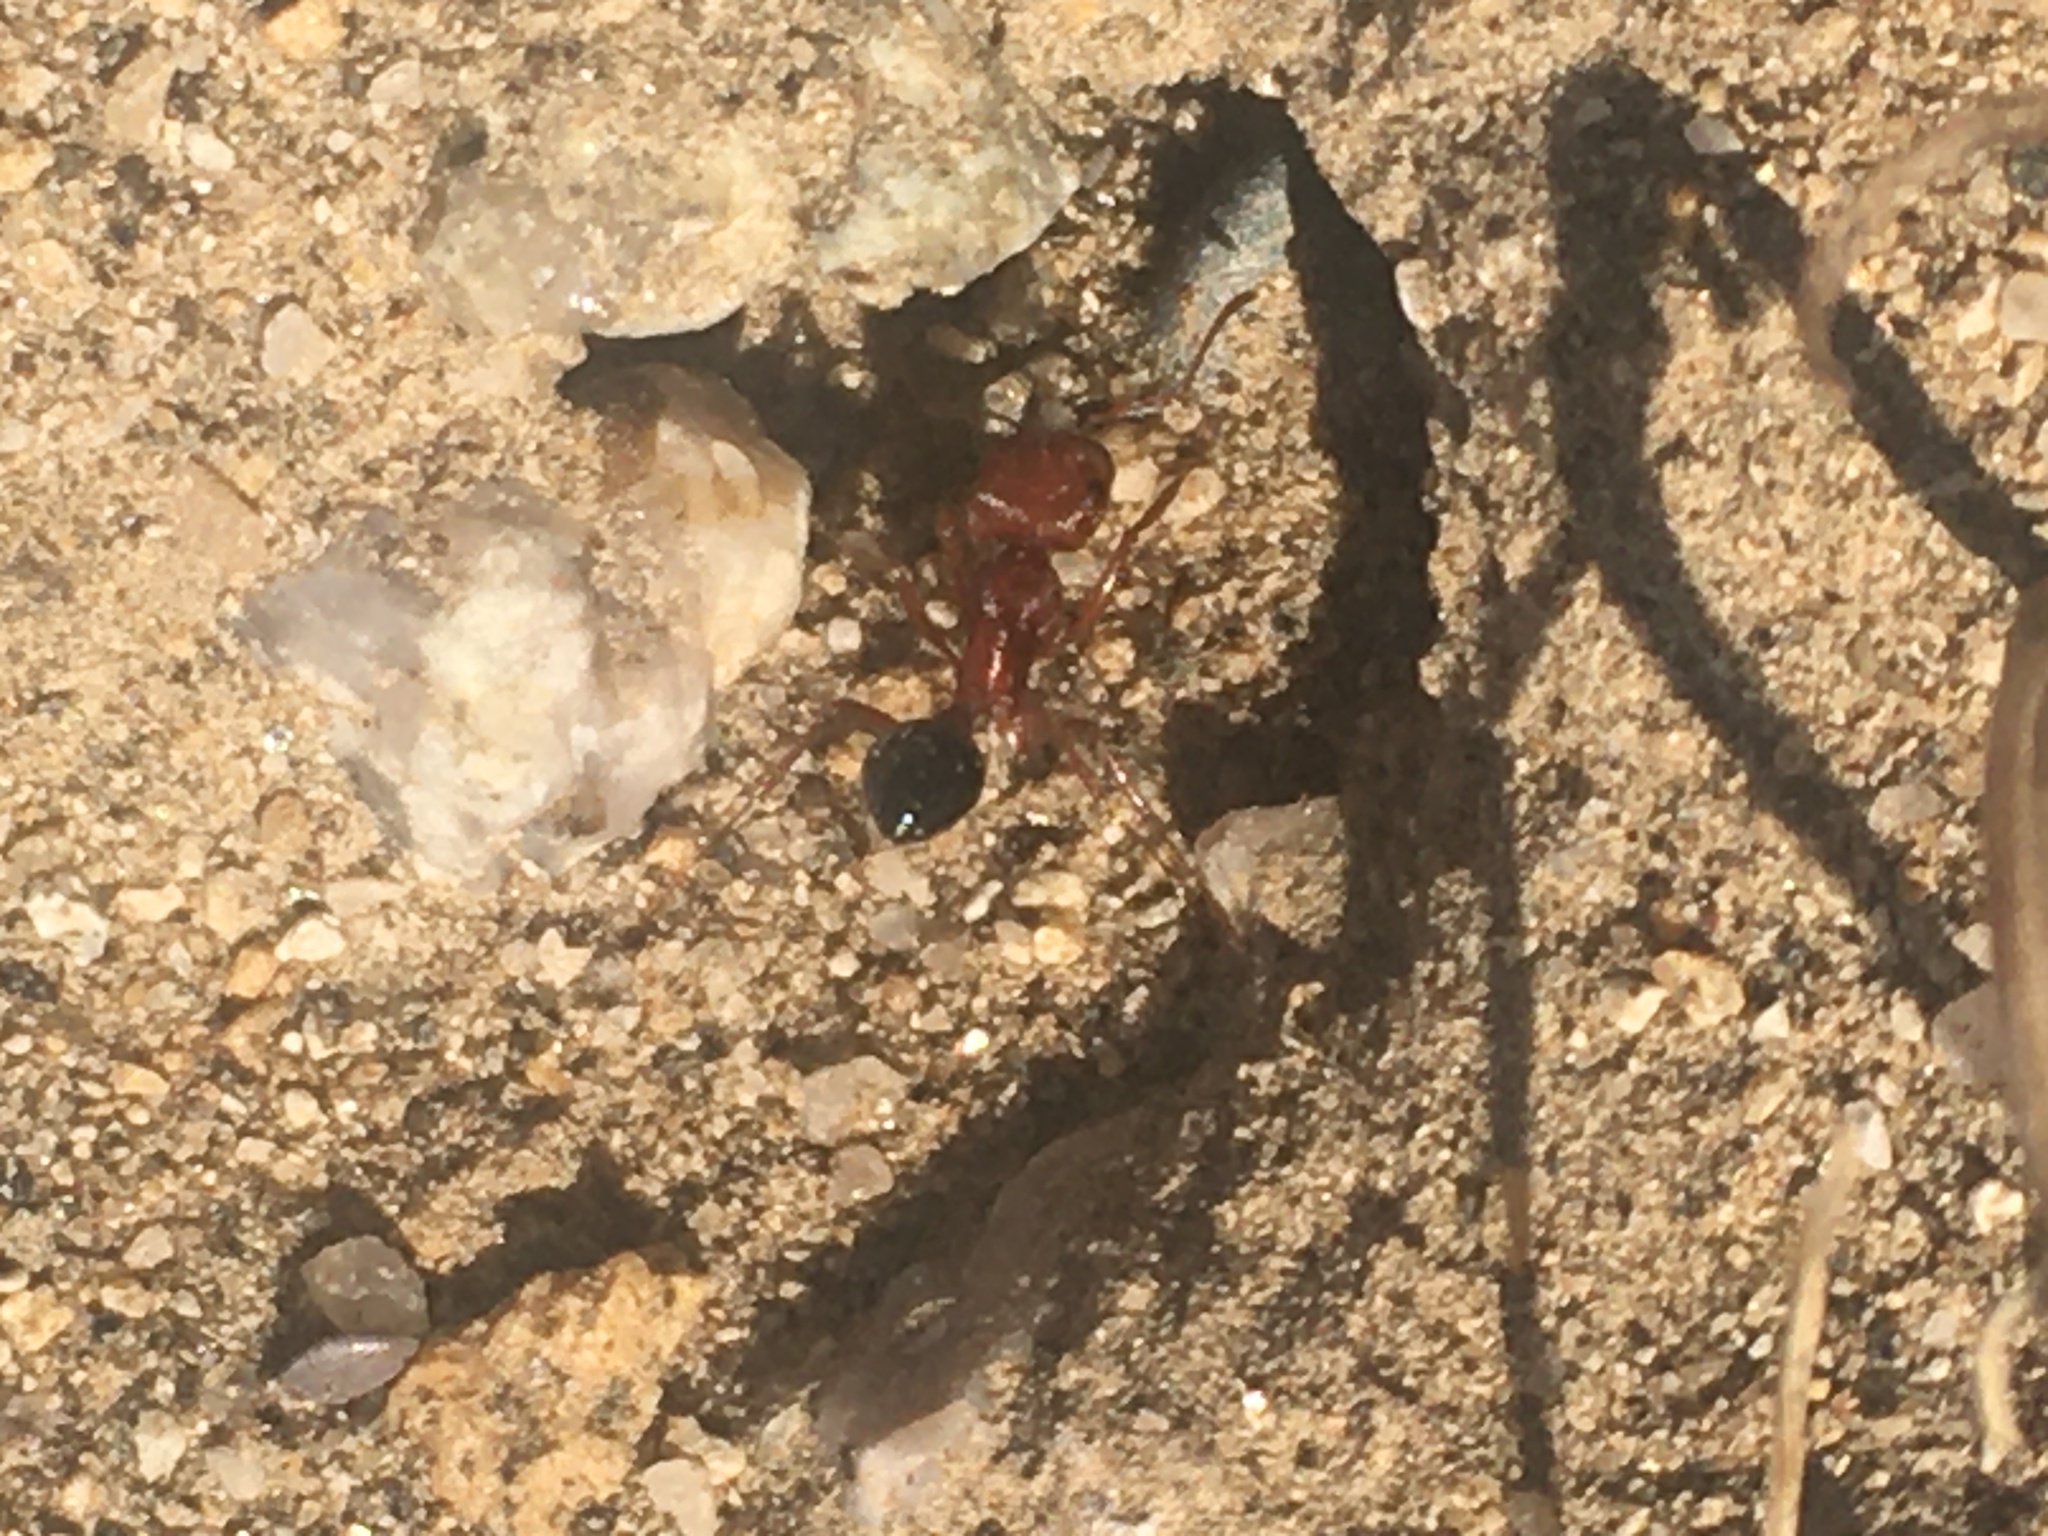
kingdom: Animalia
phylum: Arthropoda
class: Insecta
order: Hymenoptera
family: Formicidae
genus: Pogonomyrmex
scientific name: Pogonomyrmex californicus
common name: California harvester ant
